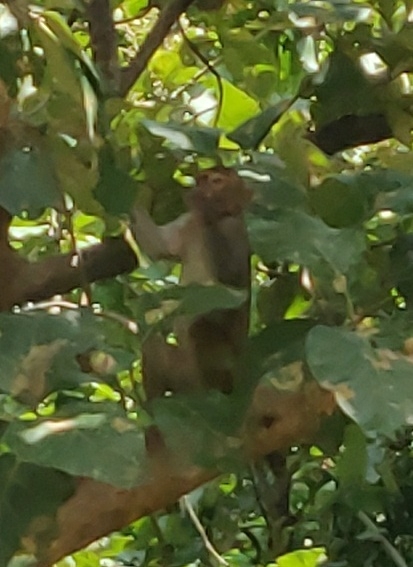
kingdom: Animalia
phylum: Chordata
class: Mammalia
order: Primates
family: Cercopithecidae
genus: Macaca
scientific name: Macaca mulatta
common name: Rhesus monkey
